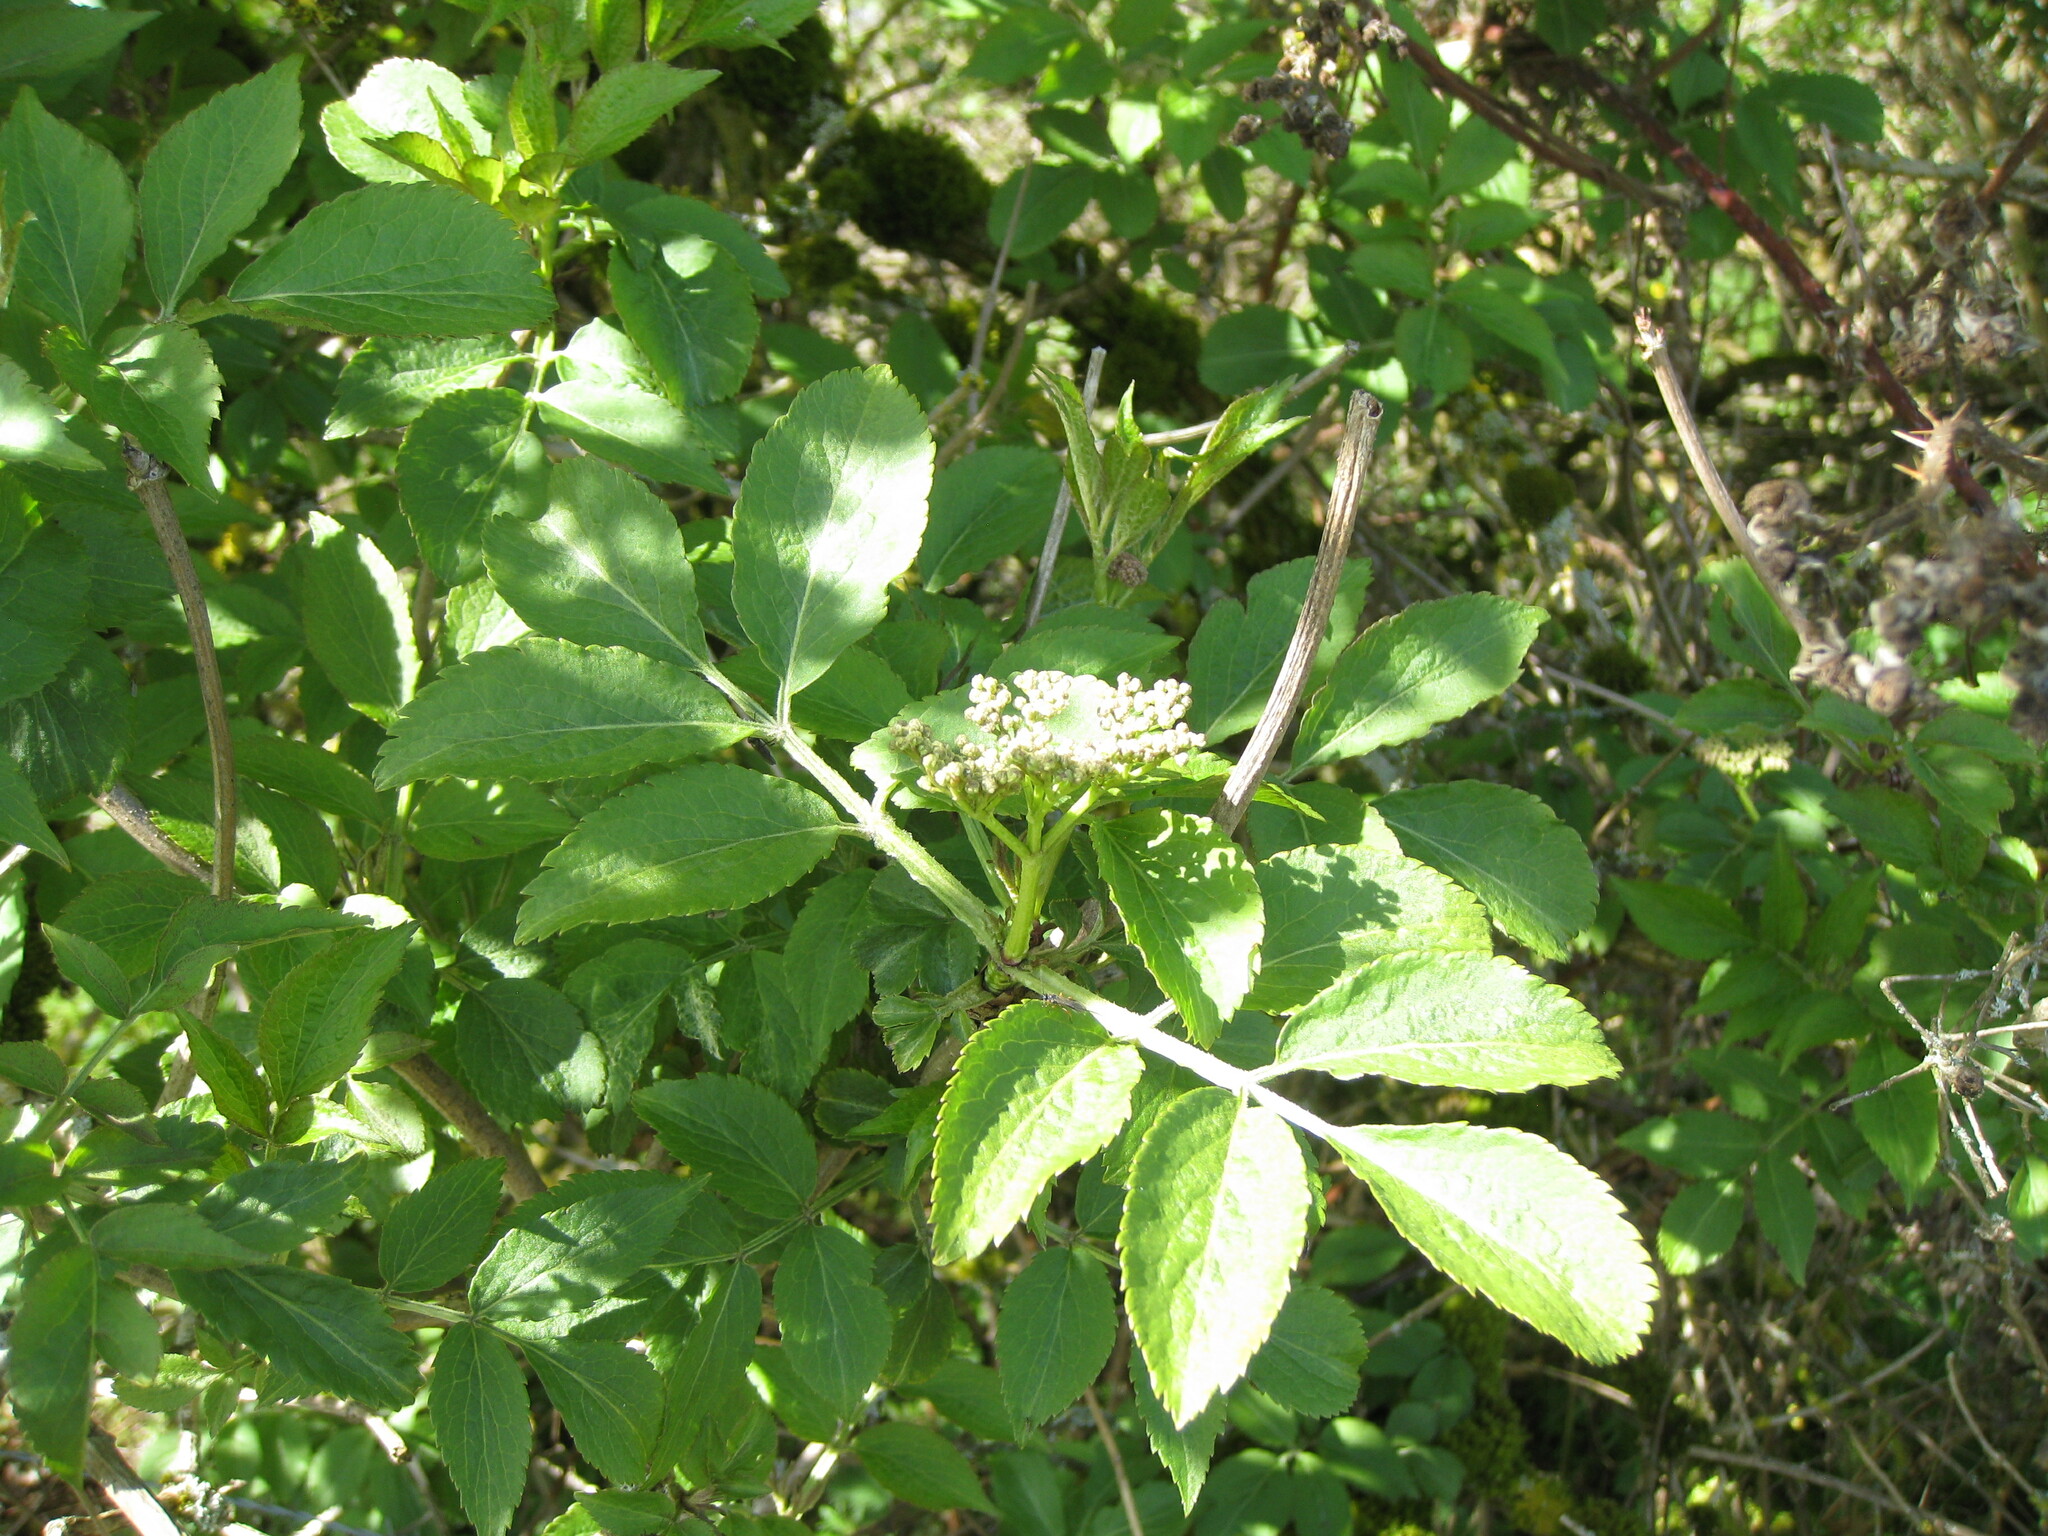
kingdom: Plantae
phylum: Tracheophyta
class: Magnoliopsida
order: Dipsacales
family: Viburnaceae
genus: Sambucus
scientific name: Sambucus nigra
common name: Elder
